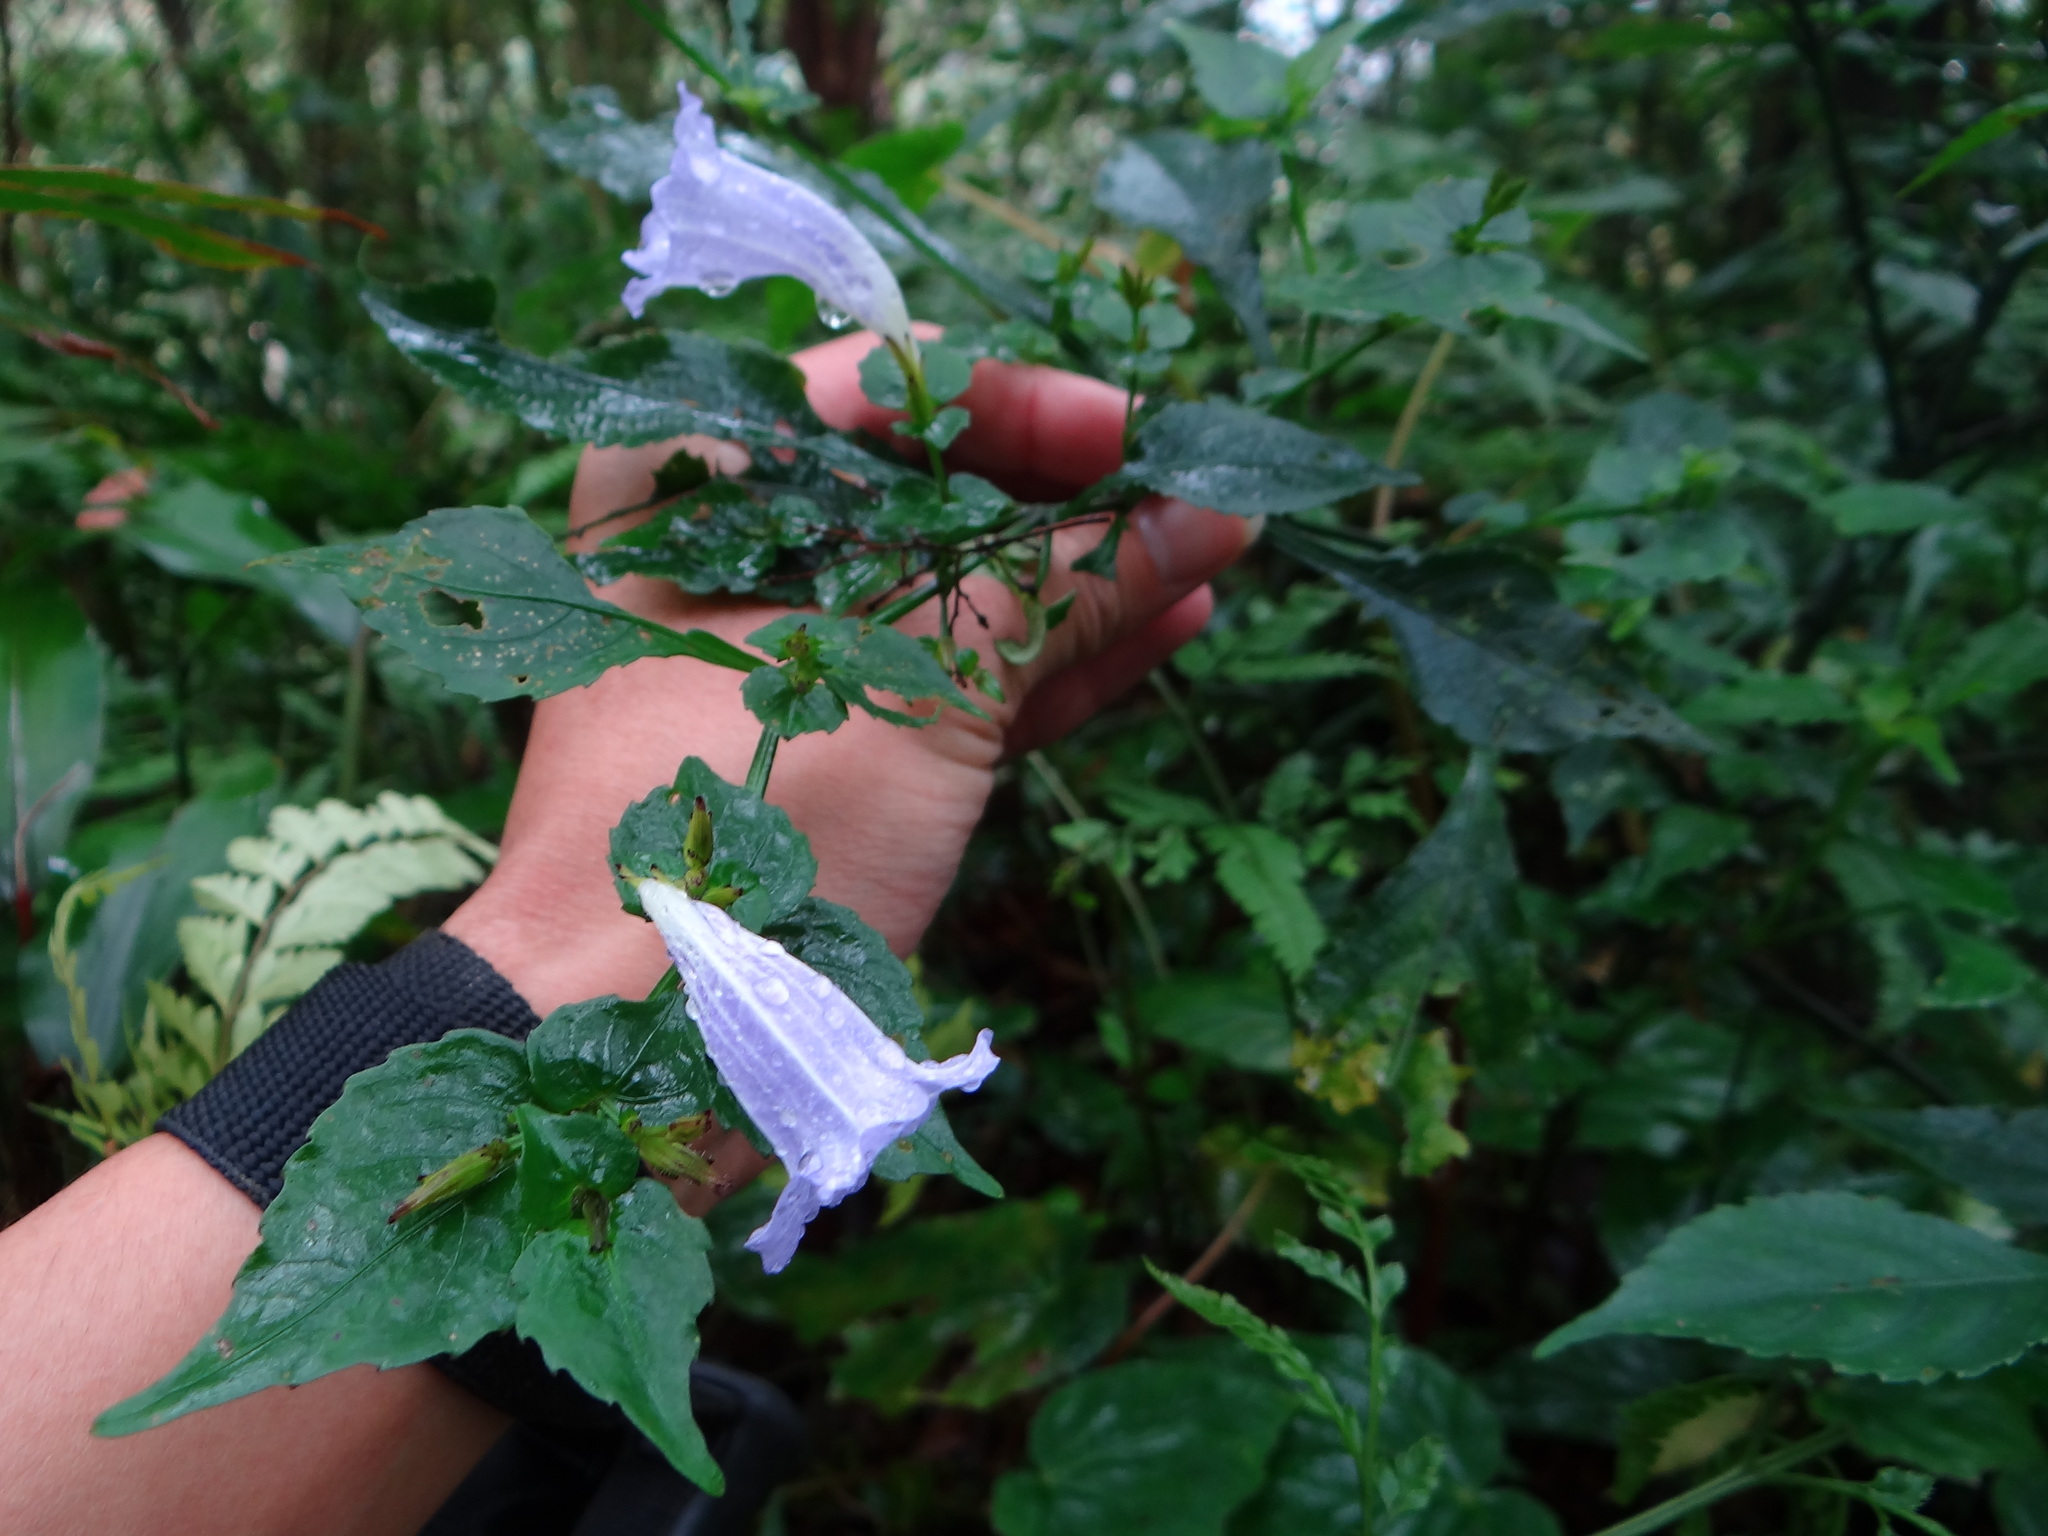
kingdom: Plantae
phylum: Tracheophyta
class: Magnoliopsida
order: Lamiales
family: Acanthaceae
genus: Strobilanthes
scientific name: Strobilanthes flexicaulis
